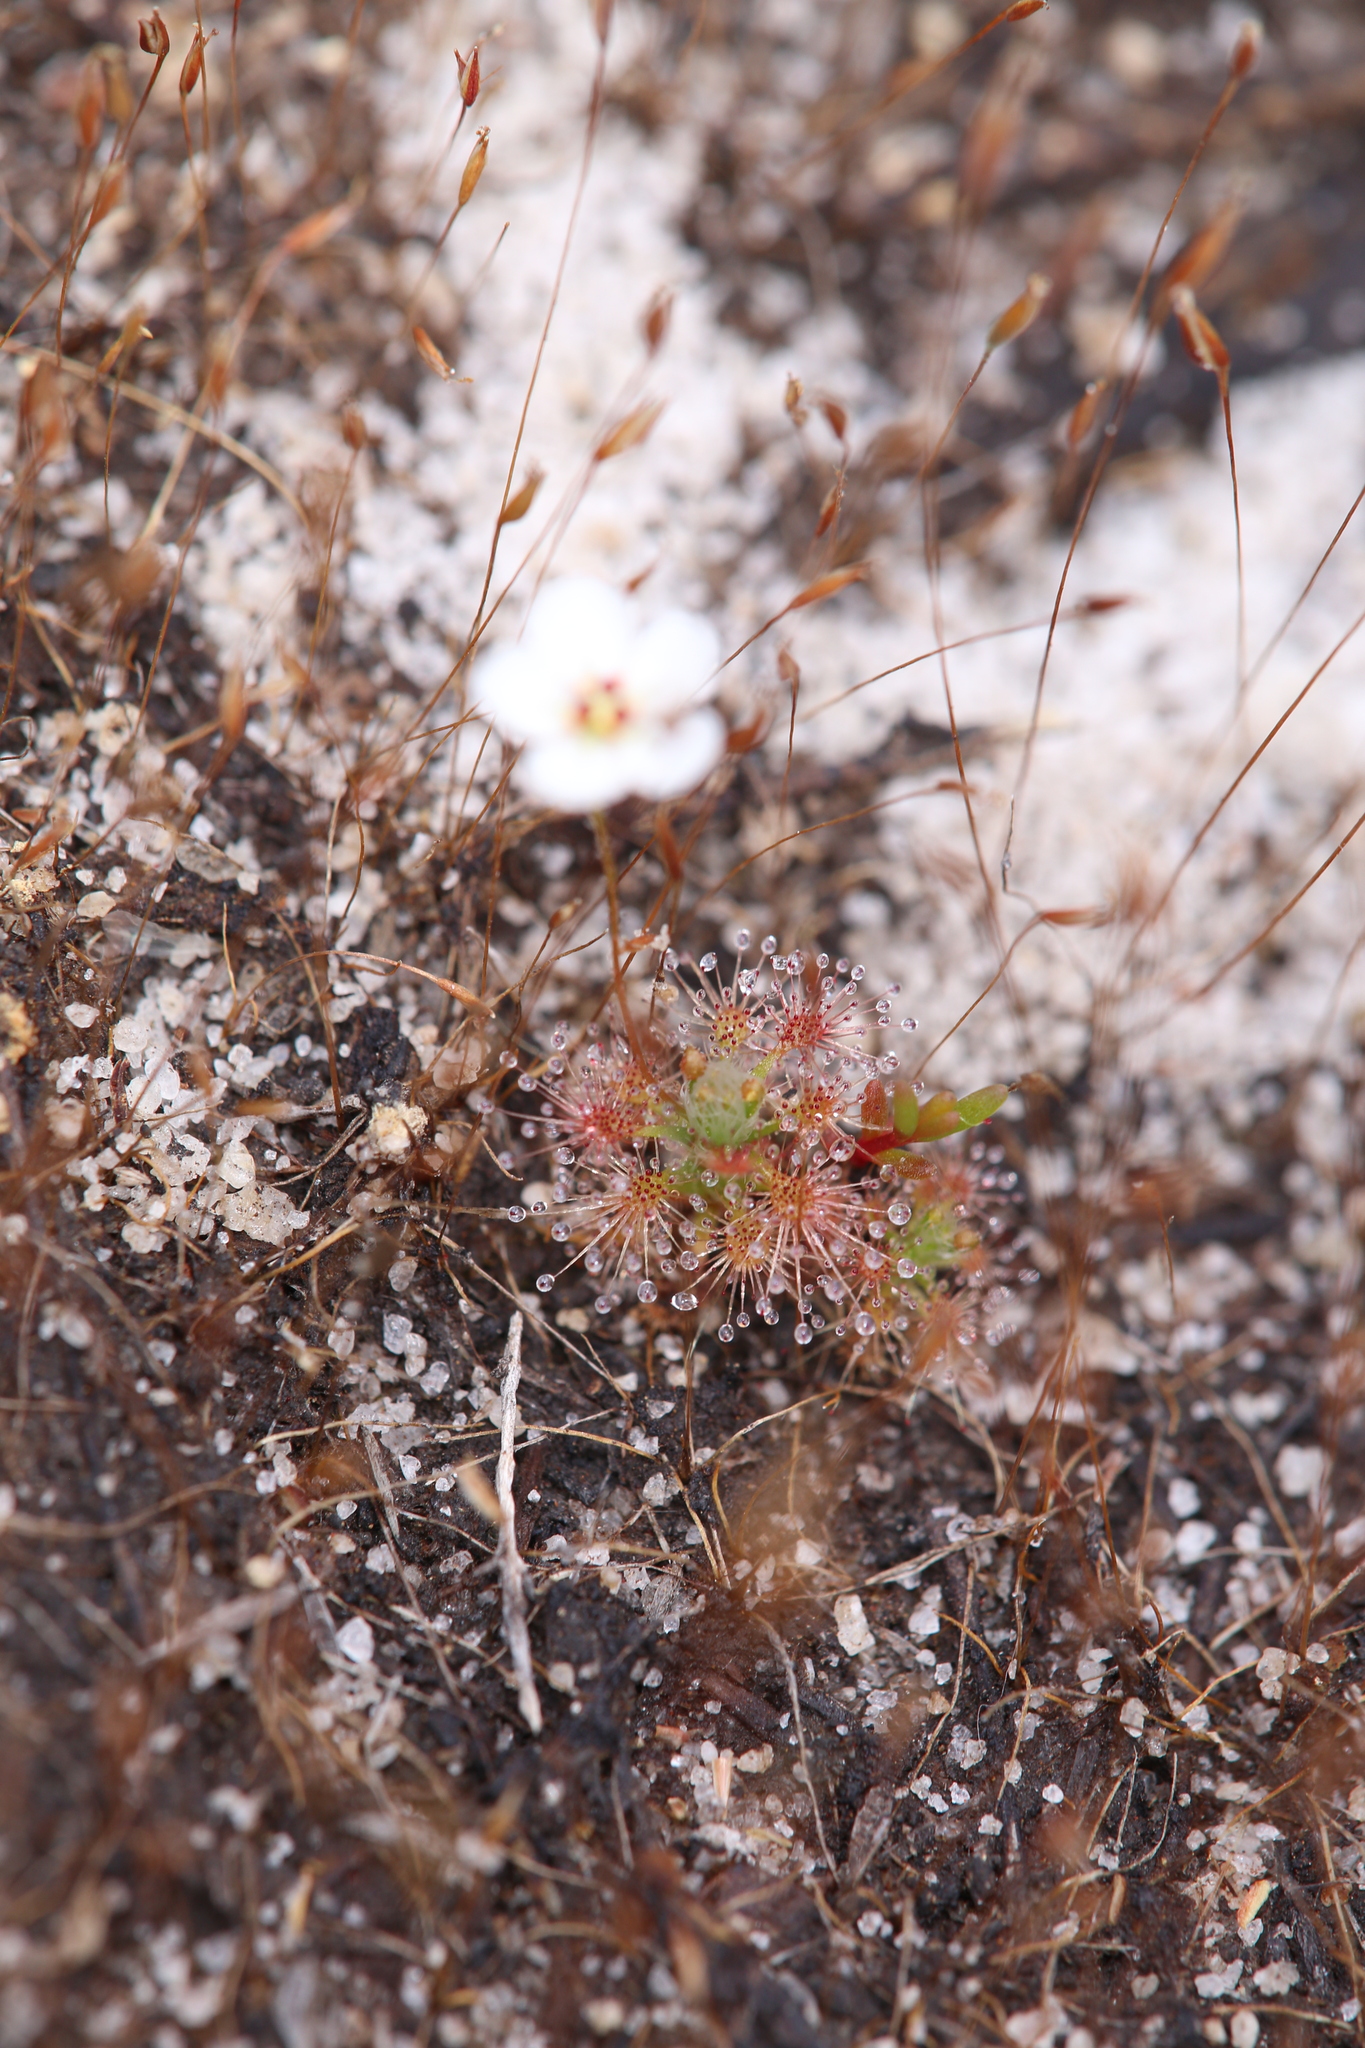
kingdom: Plantae
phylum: Tracheophyta
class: Magnoliopsida
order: Caryophyllales
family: Droseraceae
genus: Drosera
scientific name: Drosera nitidula
